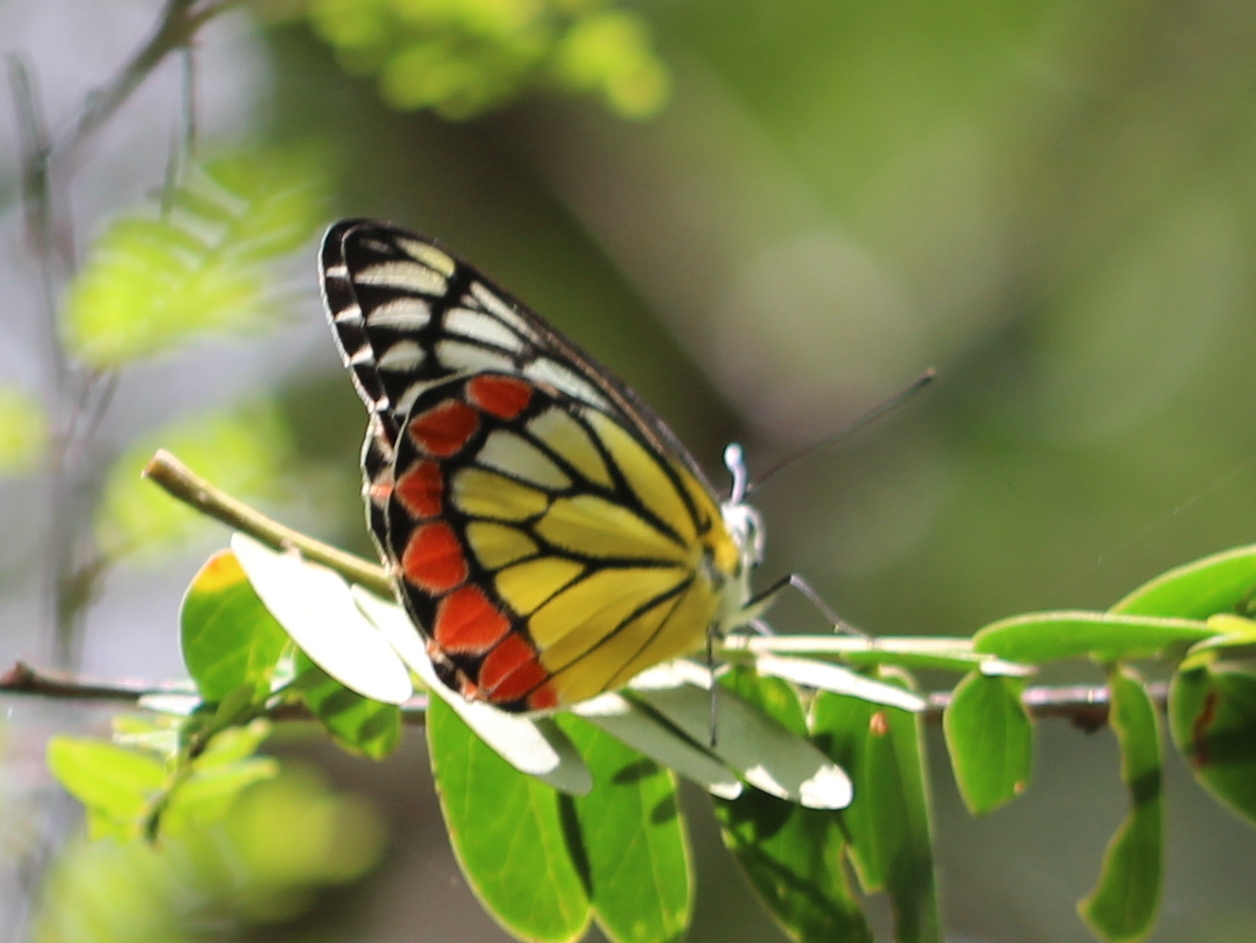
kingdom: Animalia
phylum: Arthropoda
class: Insecta
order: Lepidoptera
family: Pieridae
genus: Delias
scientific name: Delias eucharis
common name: Common jezebel
